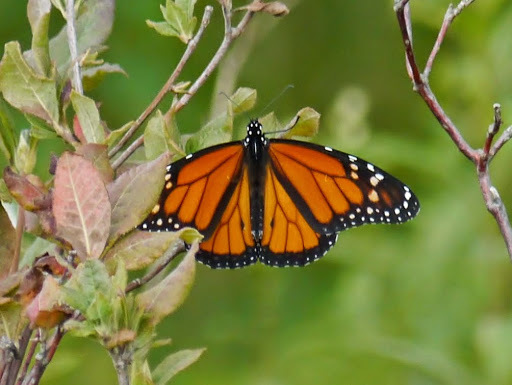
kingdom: Animalia
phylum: Arthropoda
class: Insecta
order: Lepidoptera
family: Nymphalidae
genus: Danaus
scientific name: Danaus plexippus
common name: Monarch
